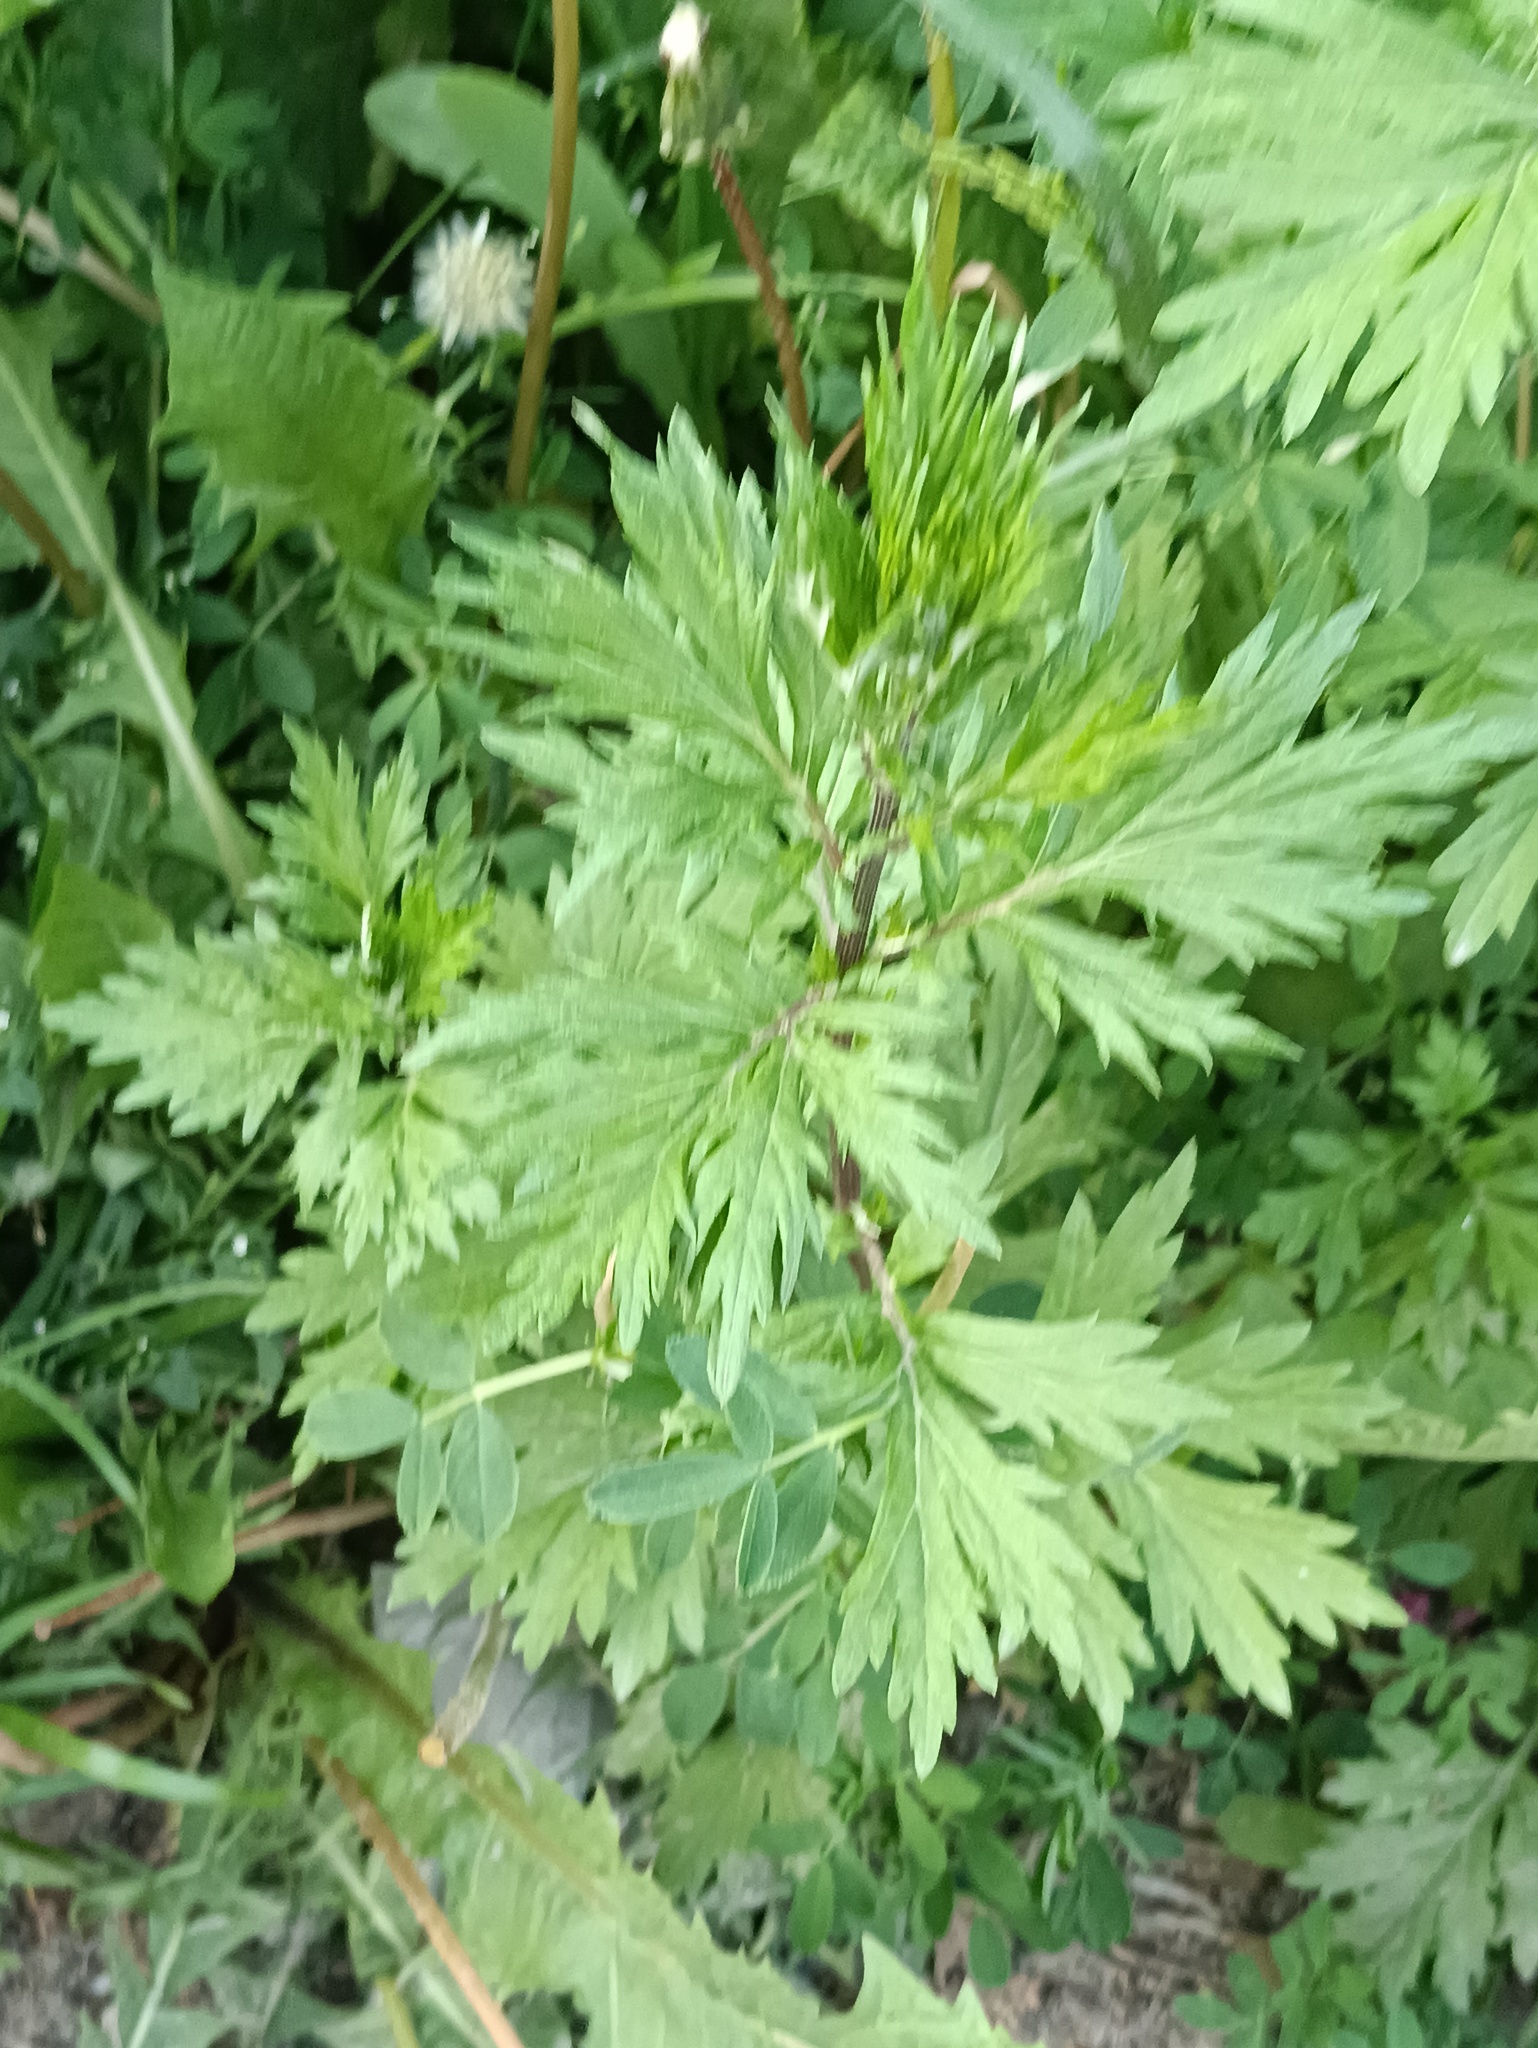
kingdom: Plantae
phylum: Tracheophyta
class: Magnoliopsida
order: Asterales
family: Asteraceae
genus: Artemisia
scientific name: Artemisia vulgaris
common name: Mugwort
